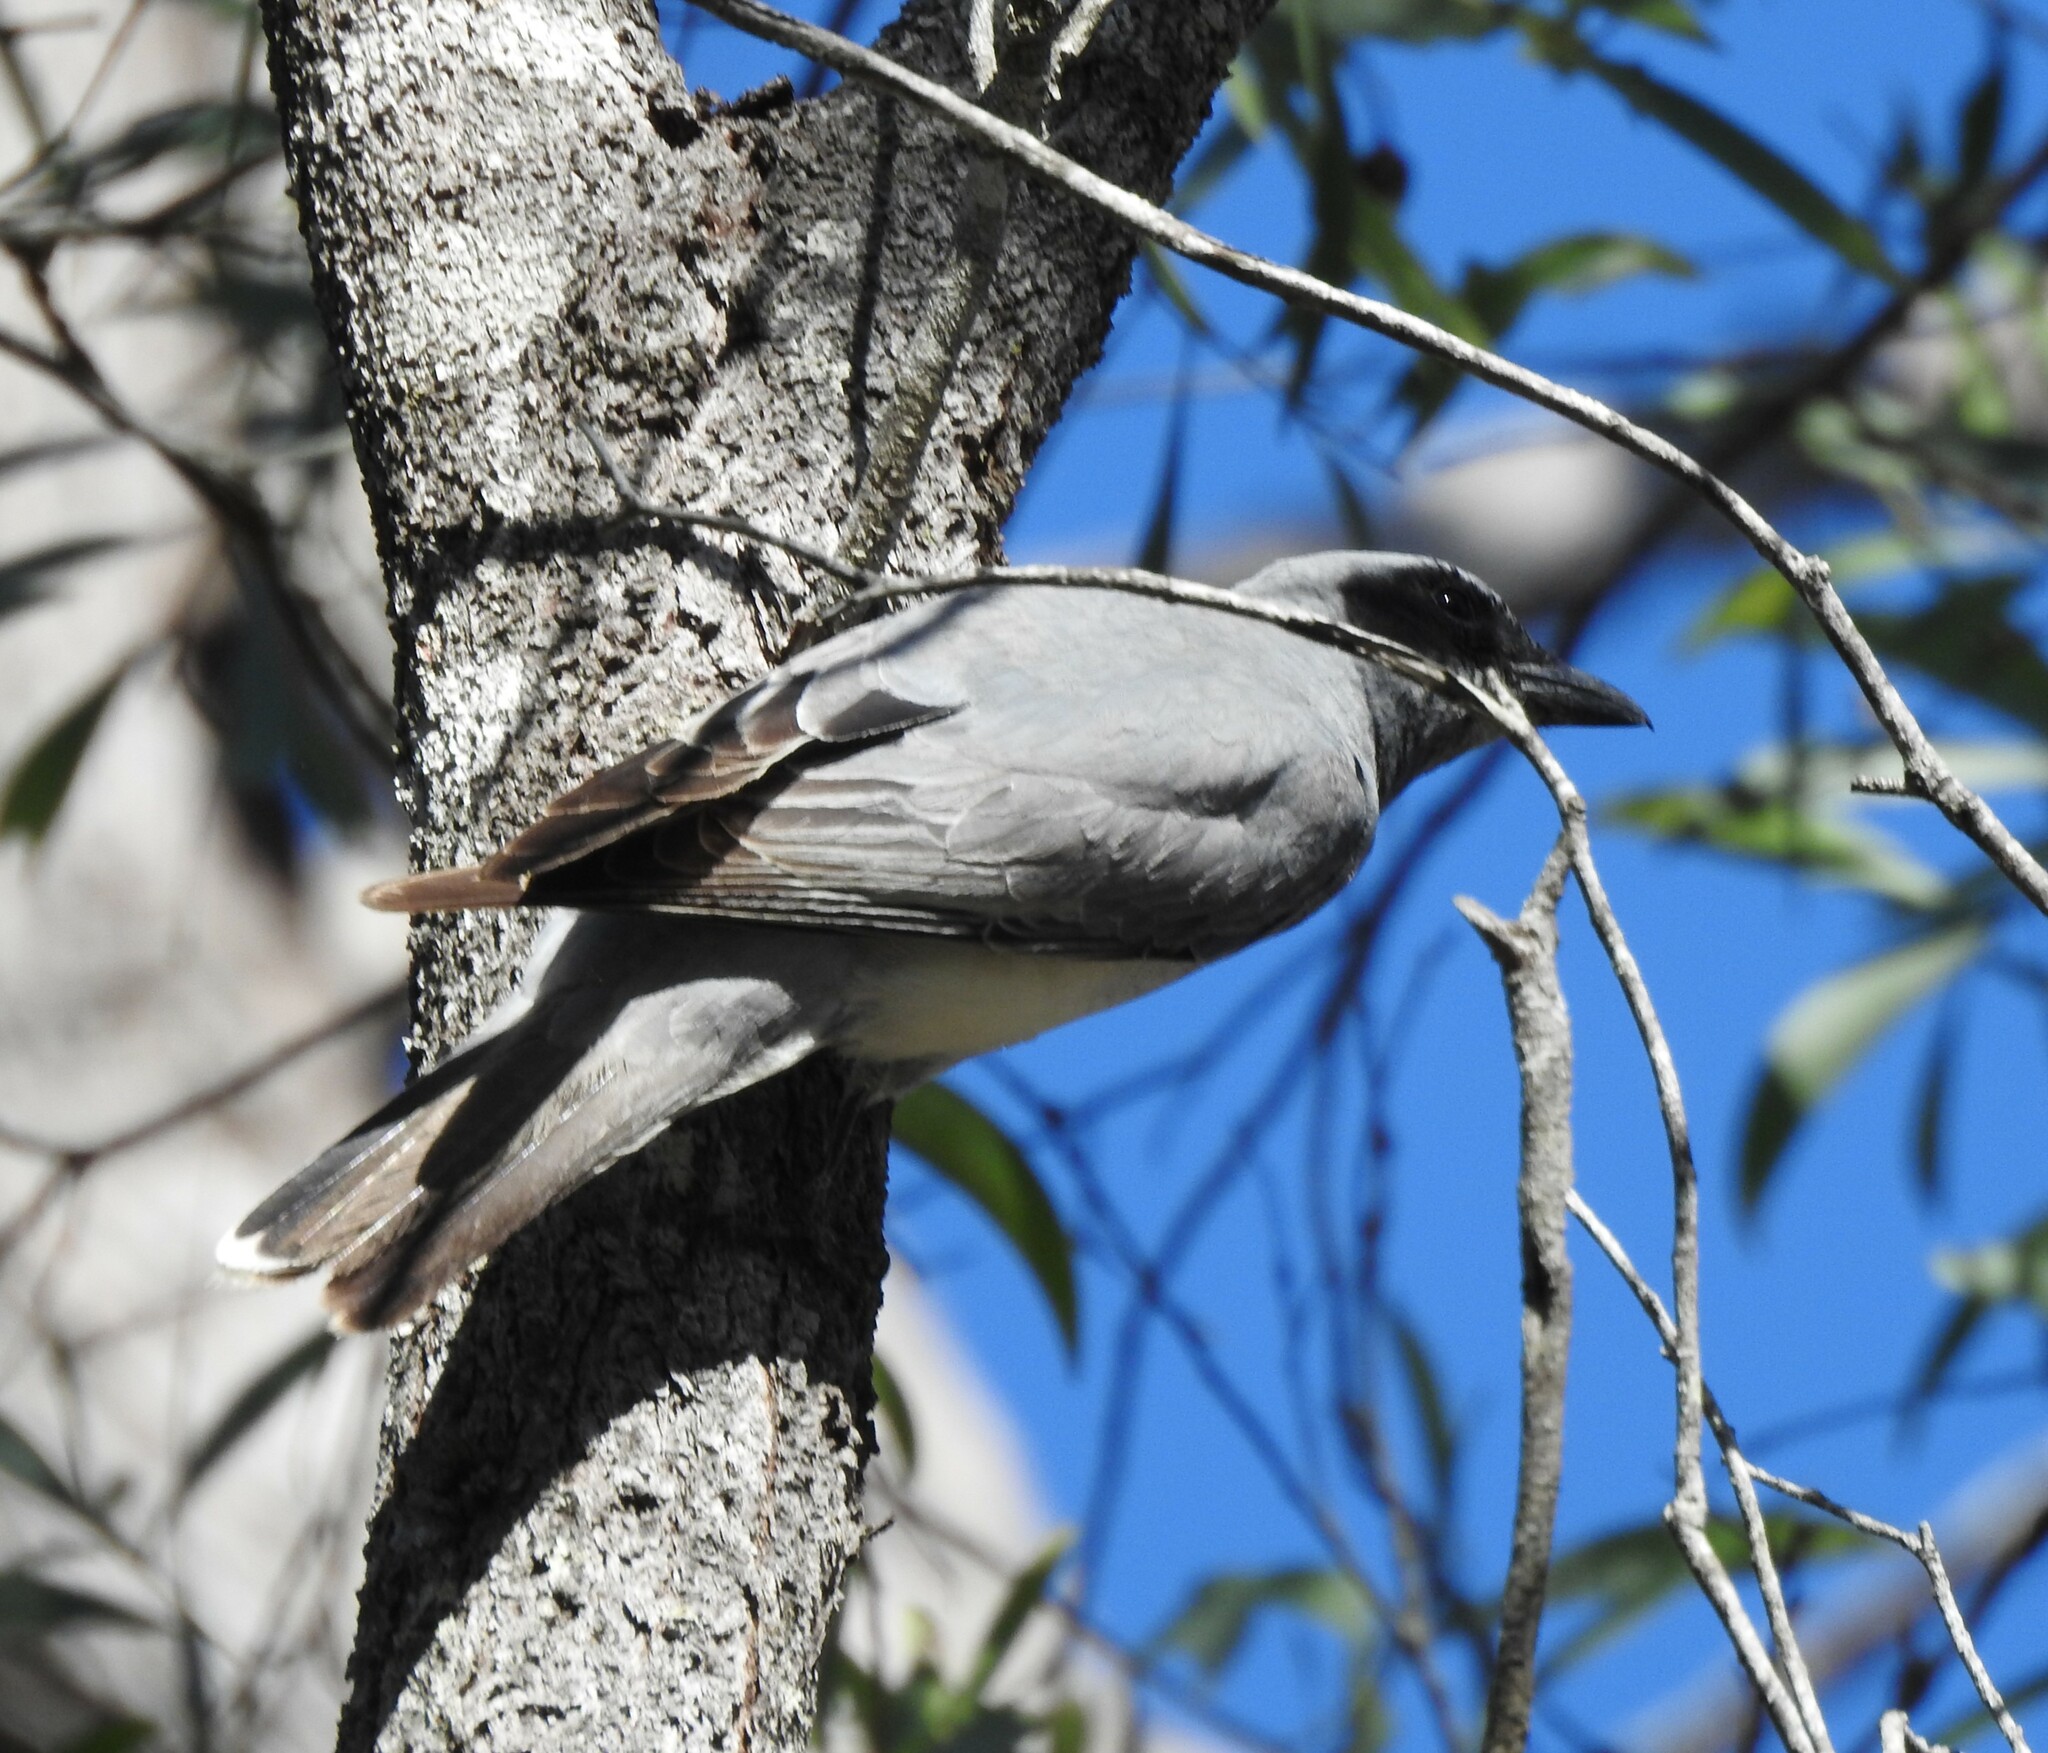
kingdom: Animalia
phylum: Chordata
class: Aves
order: Passeriformes
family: Campephagidae
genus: Coracina
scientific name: Coracina novaehollandiae
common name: Black-faced cuckooshrike
